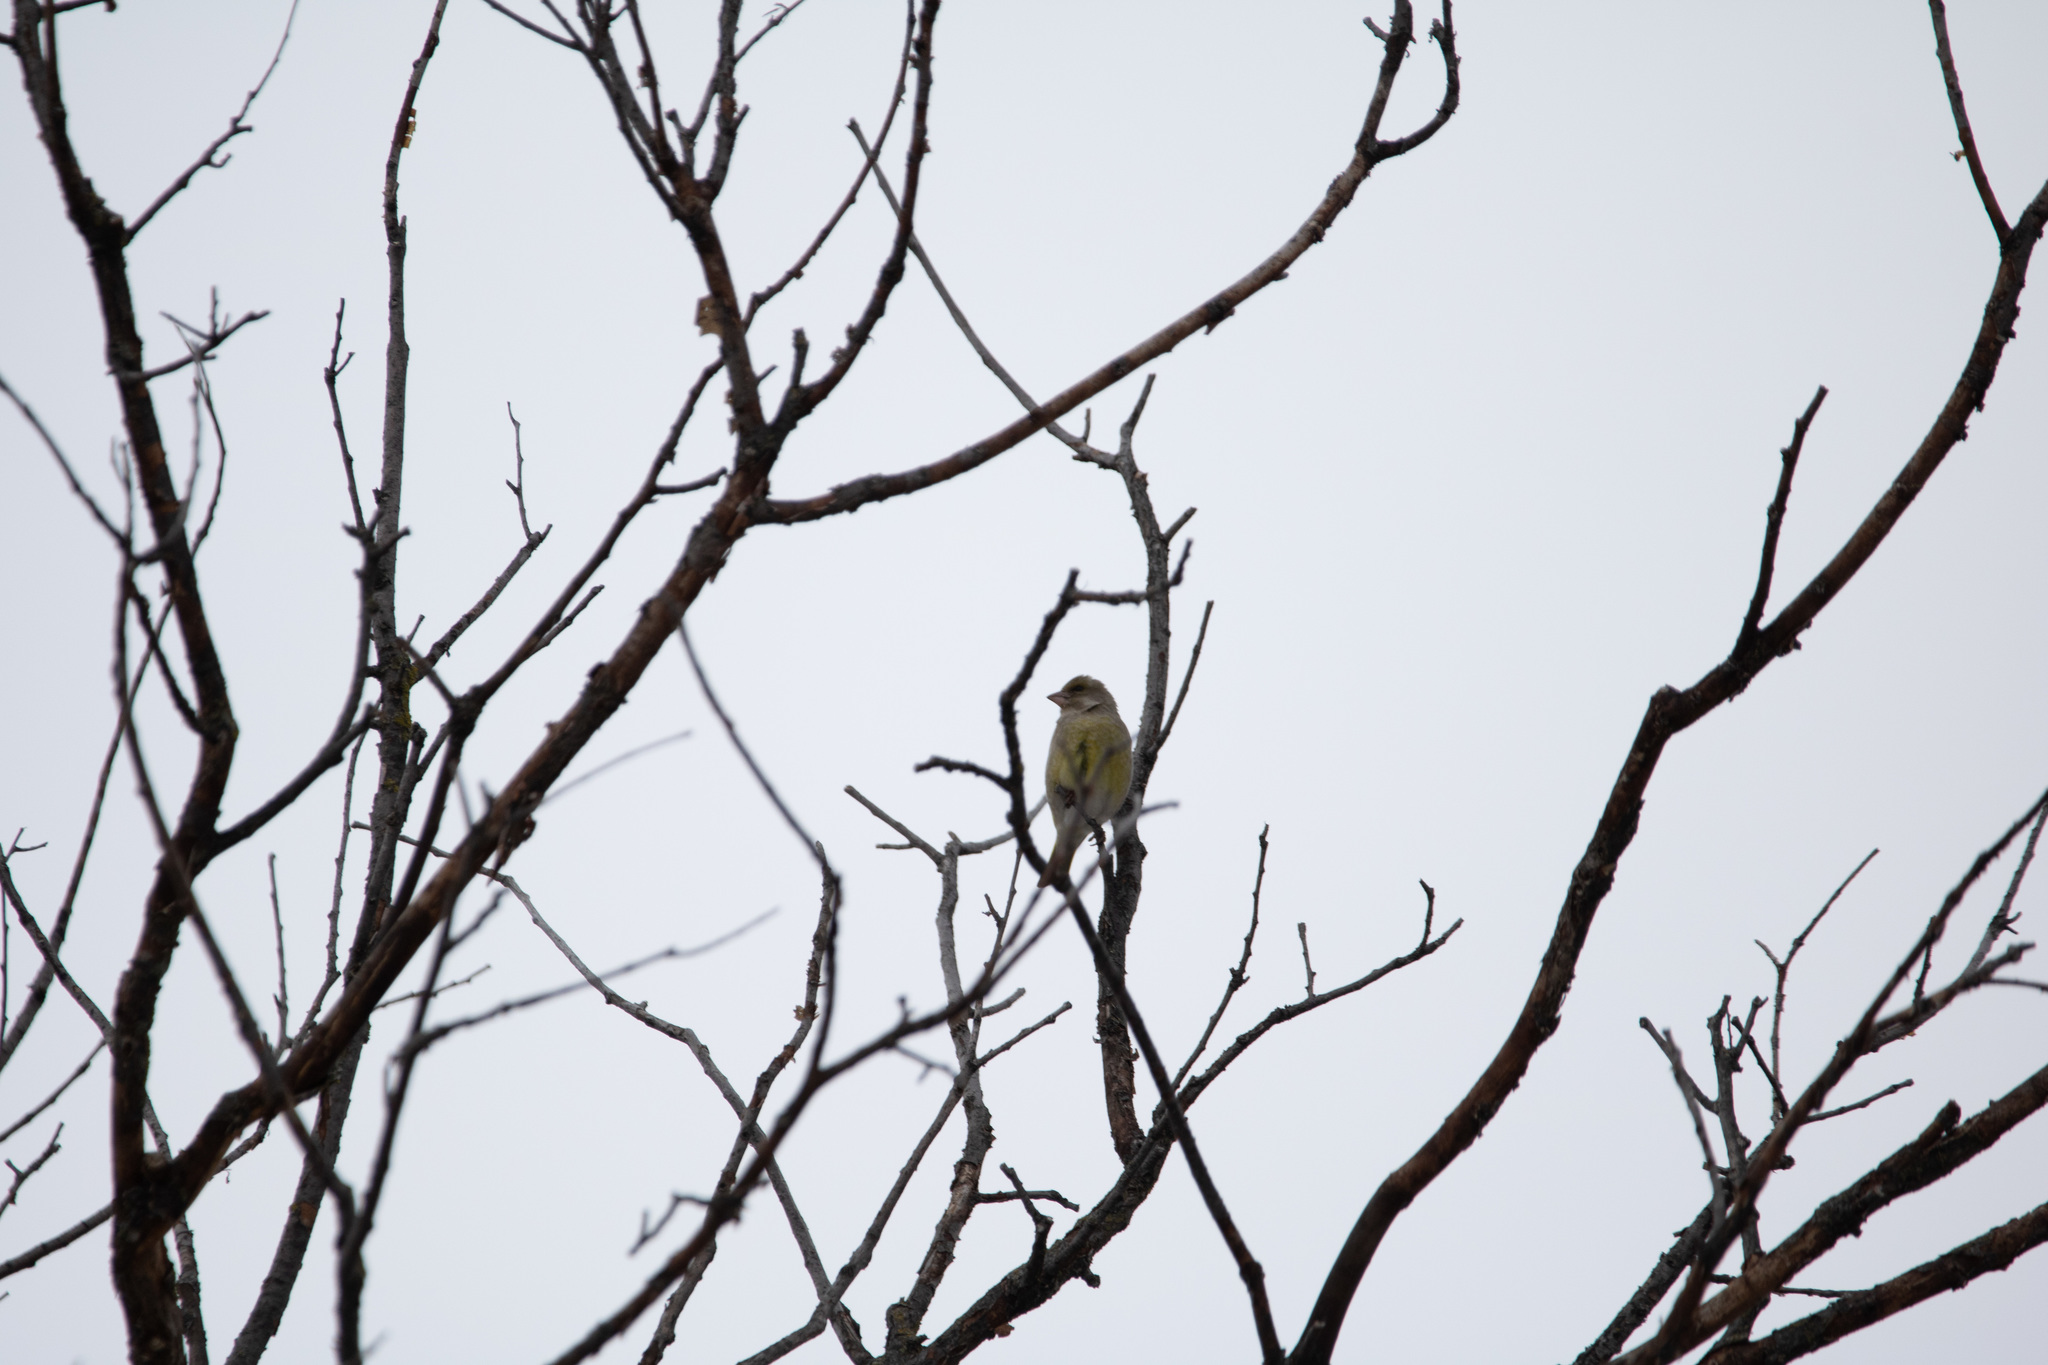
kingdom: Plantae
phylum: Tracheophyta
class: Liliopsida
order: Poales
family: Poaceae
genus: Chloris
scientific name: Chloris chloris
